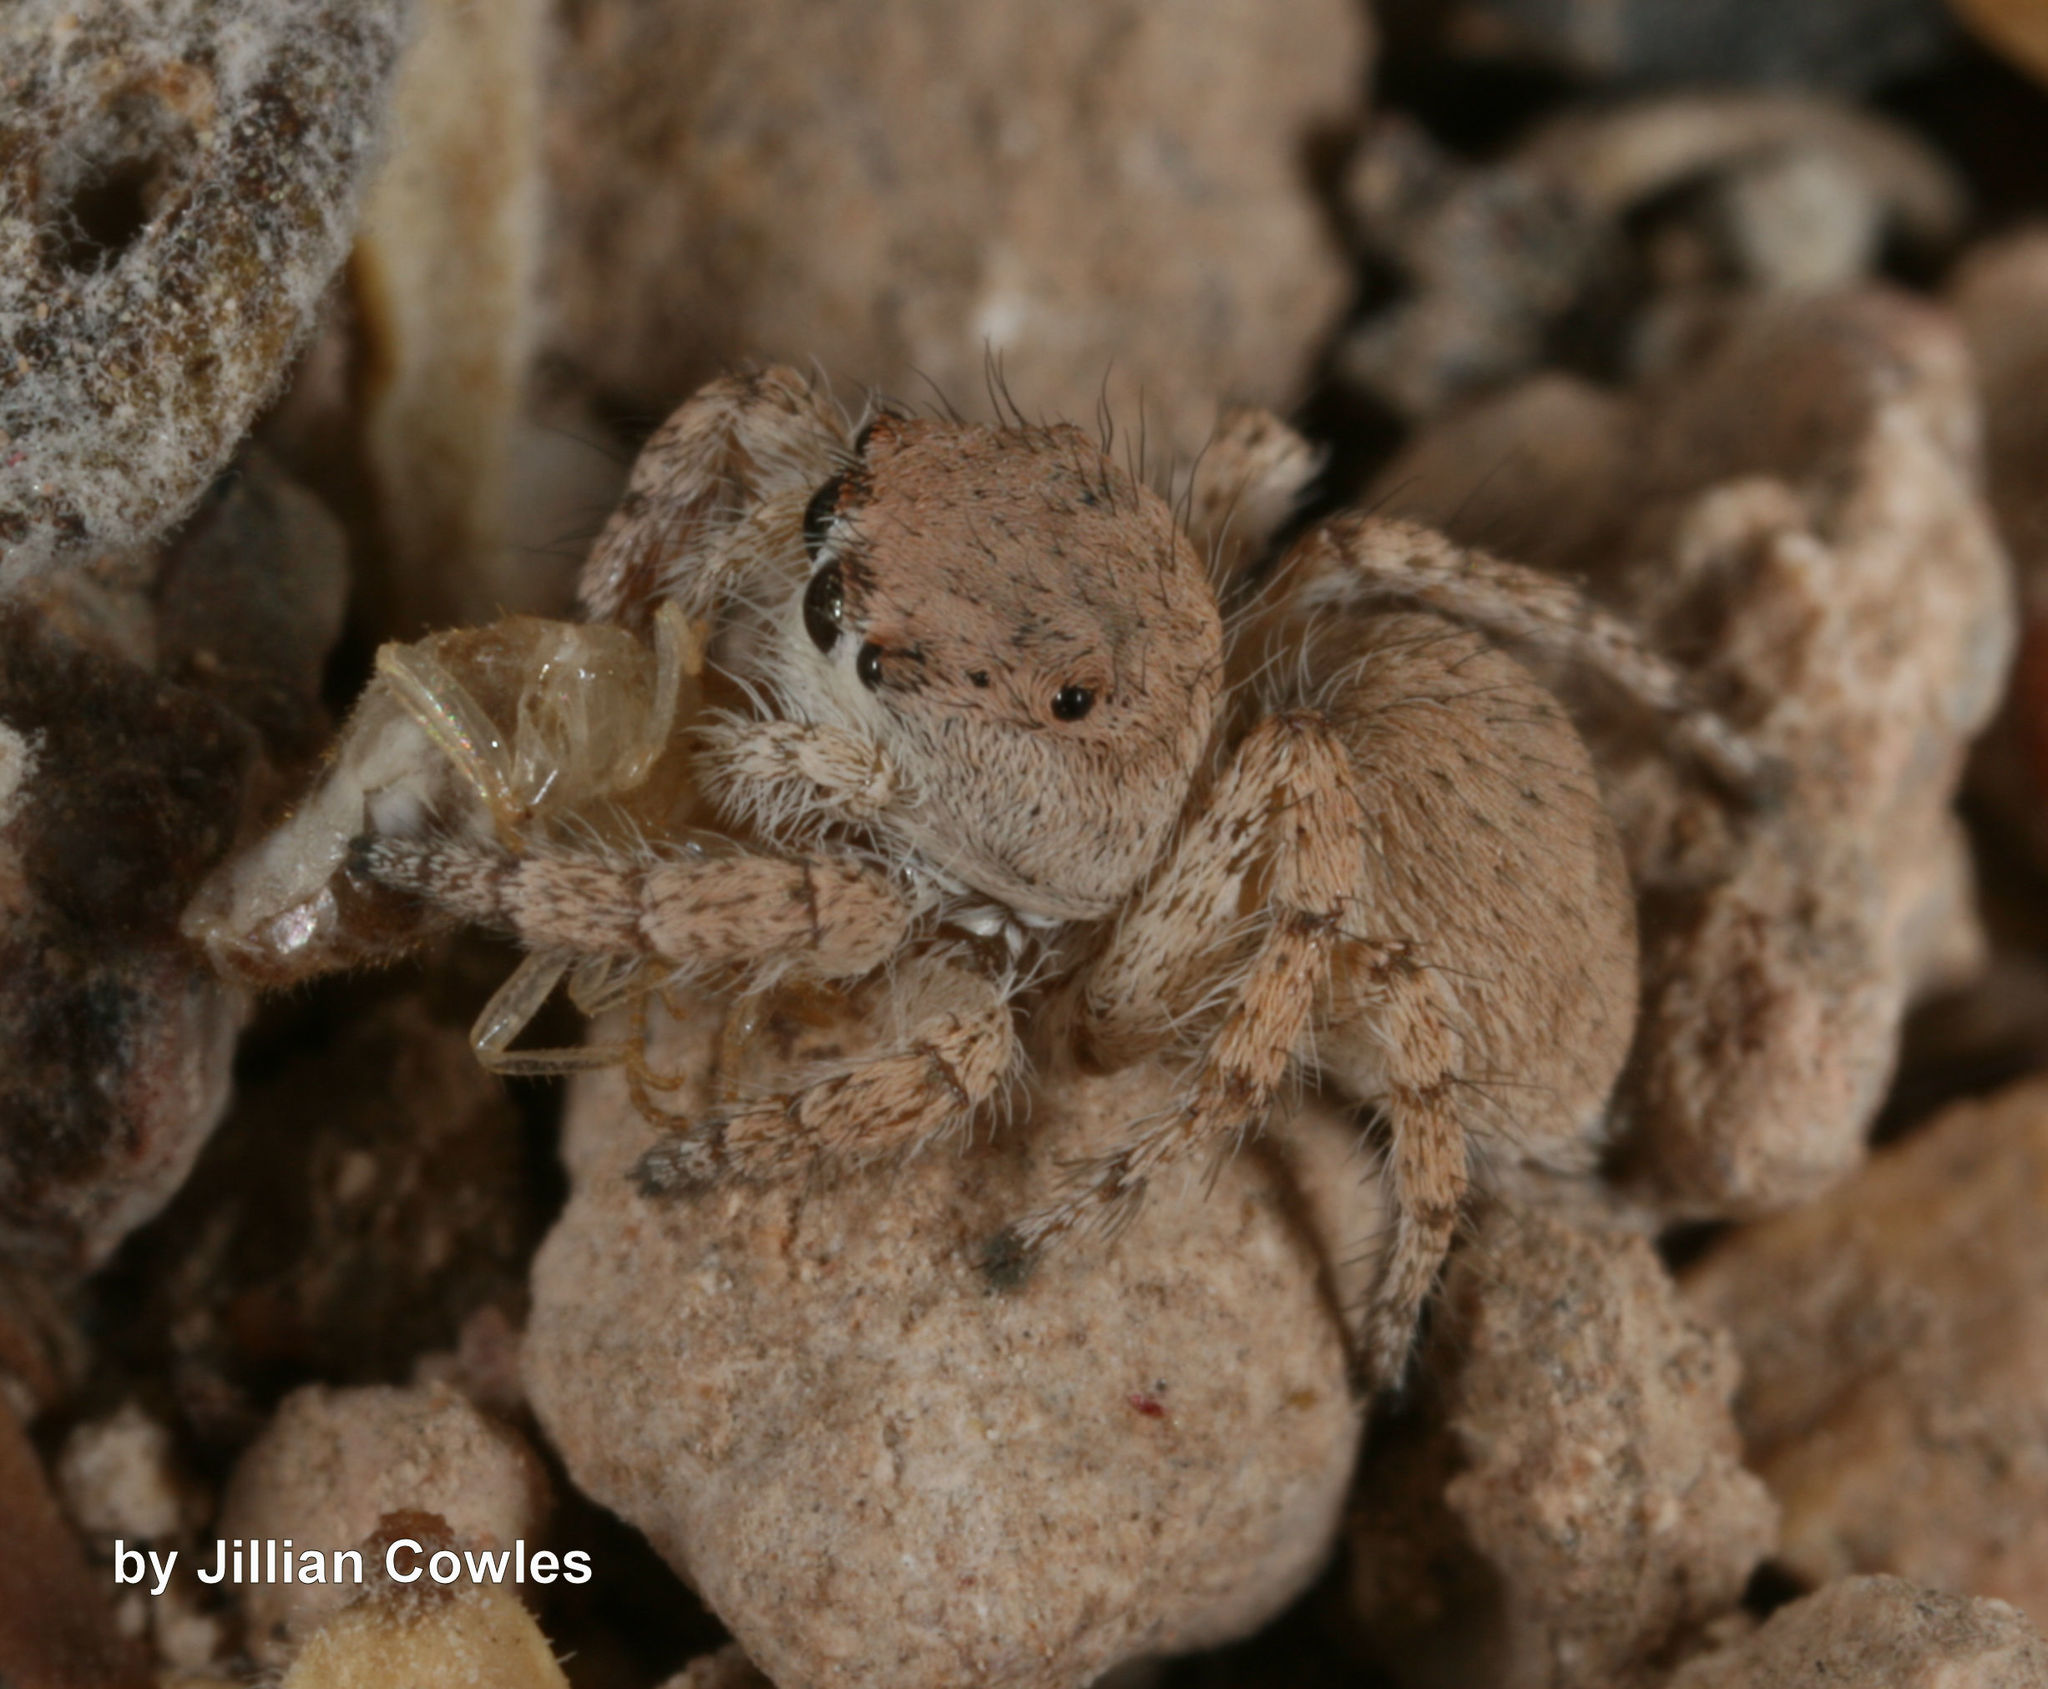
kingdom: Animalia
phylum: Arthropoda
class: Arachnida
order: Araneae
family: Salticidae
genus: Habronattus
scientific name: Habronattus ustulatus
